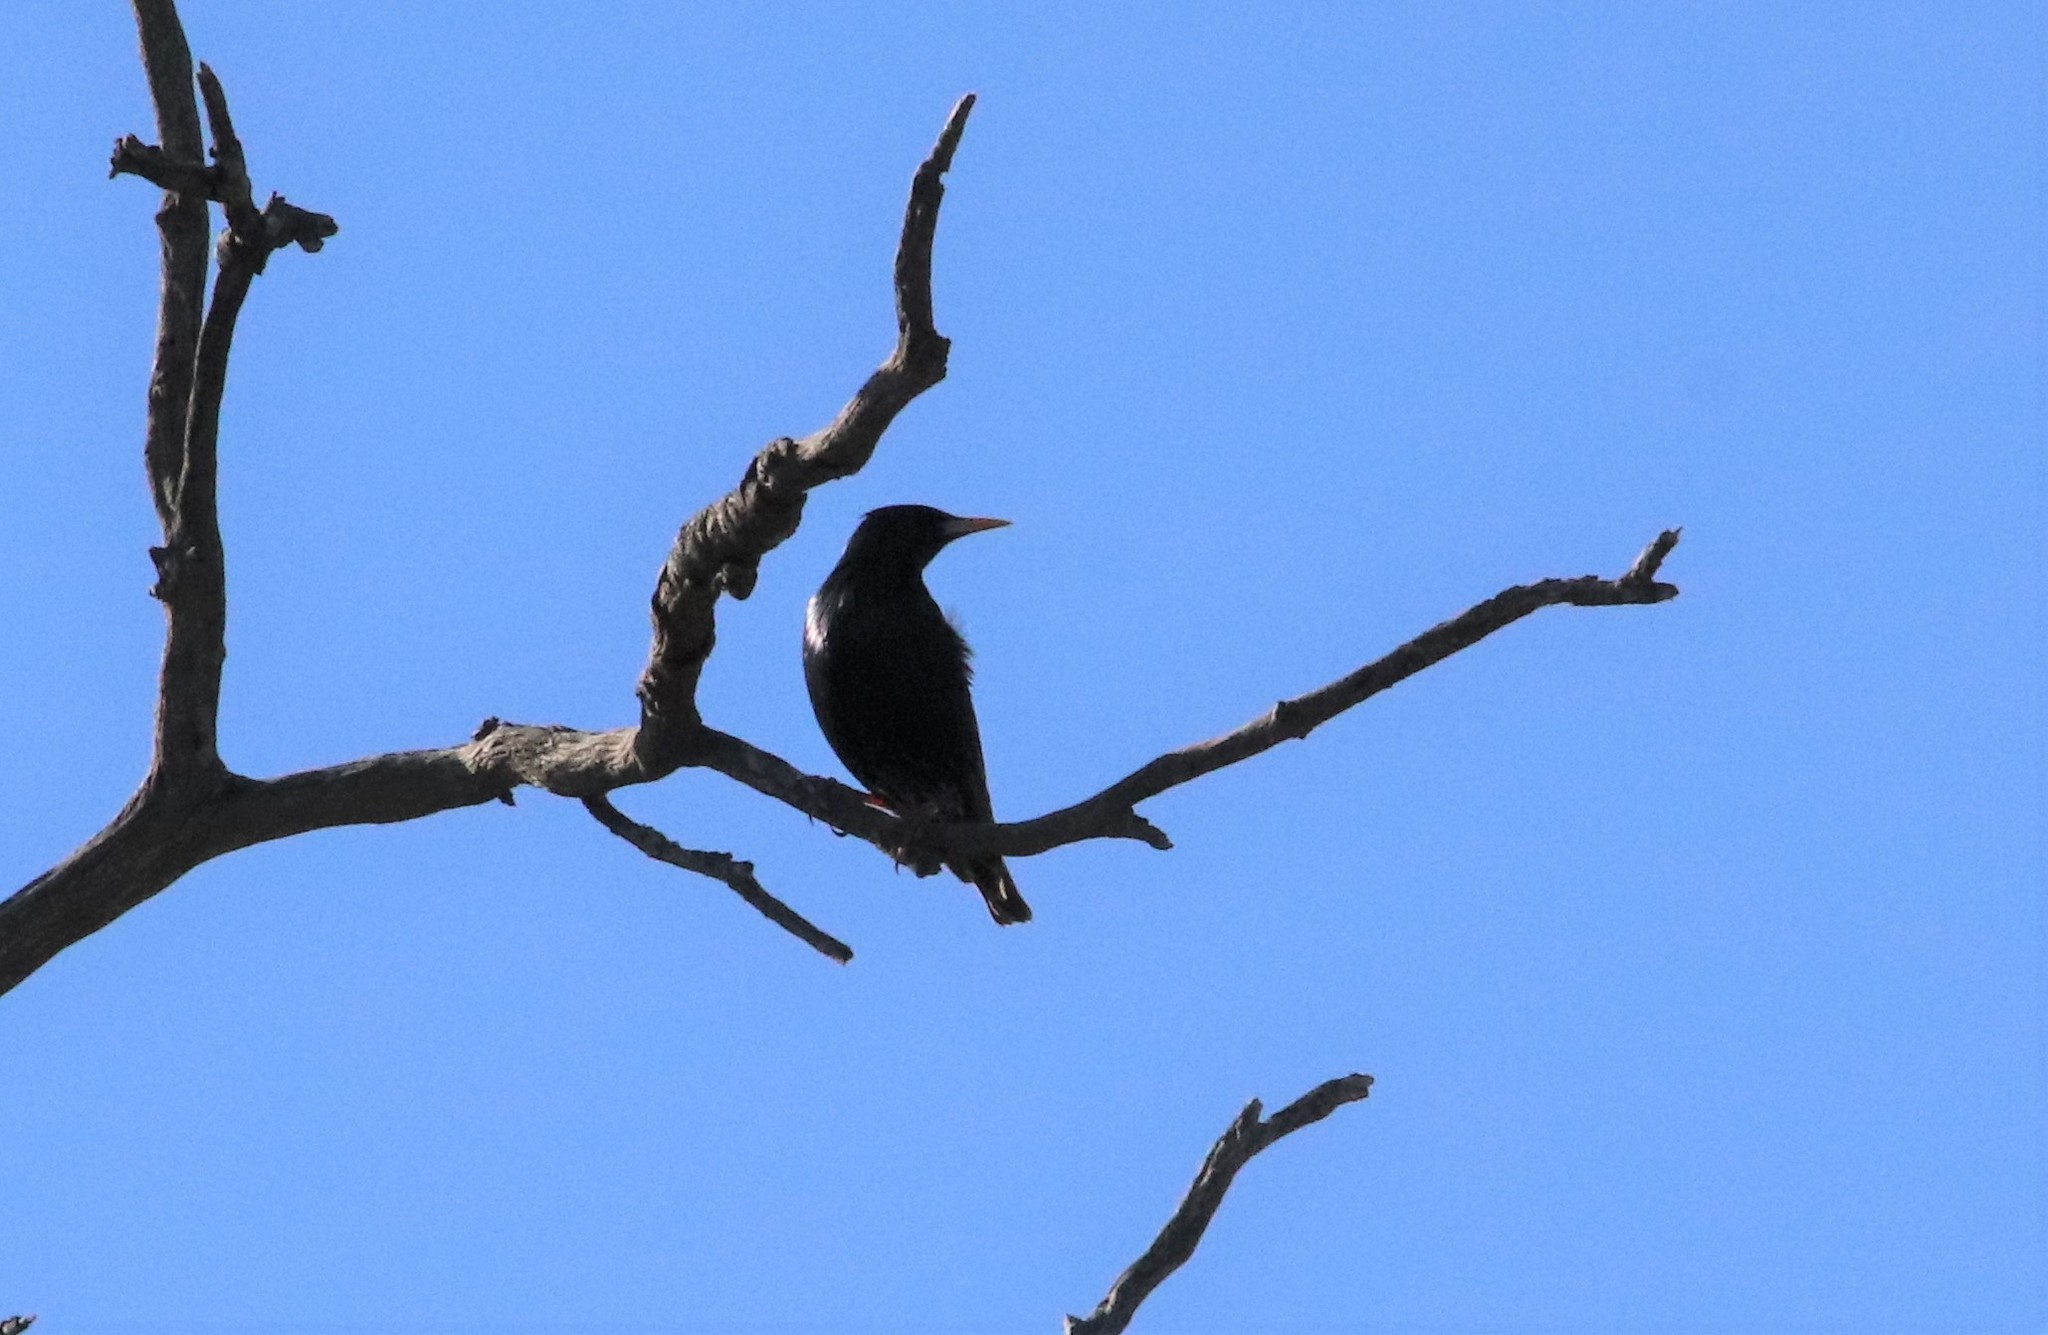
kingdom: Animalia
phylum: Chordata
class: Aves
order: Passeriformes
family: Sturnidae
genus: Sturnus
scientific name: Sturnus vulgaris
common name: Common starling
